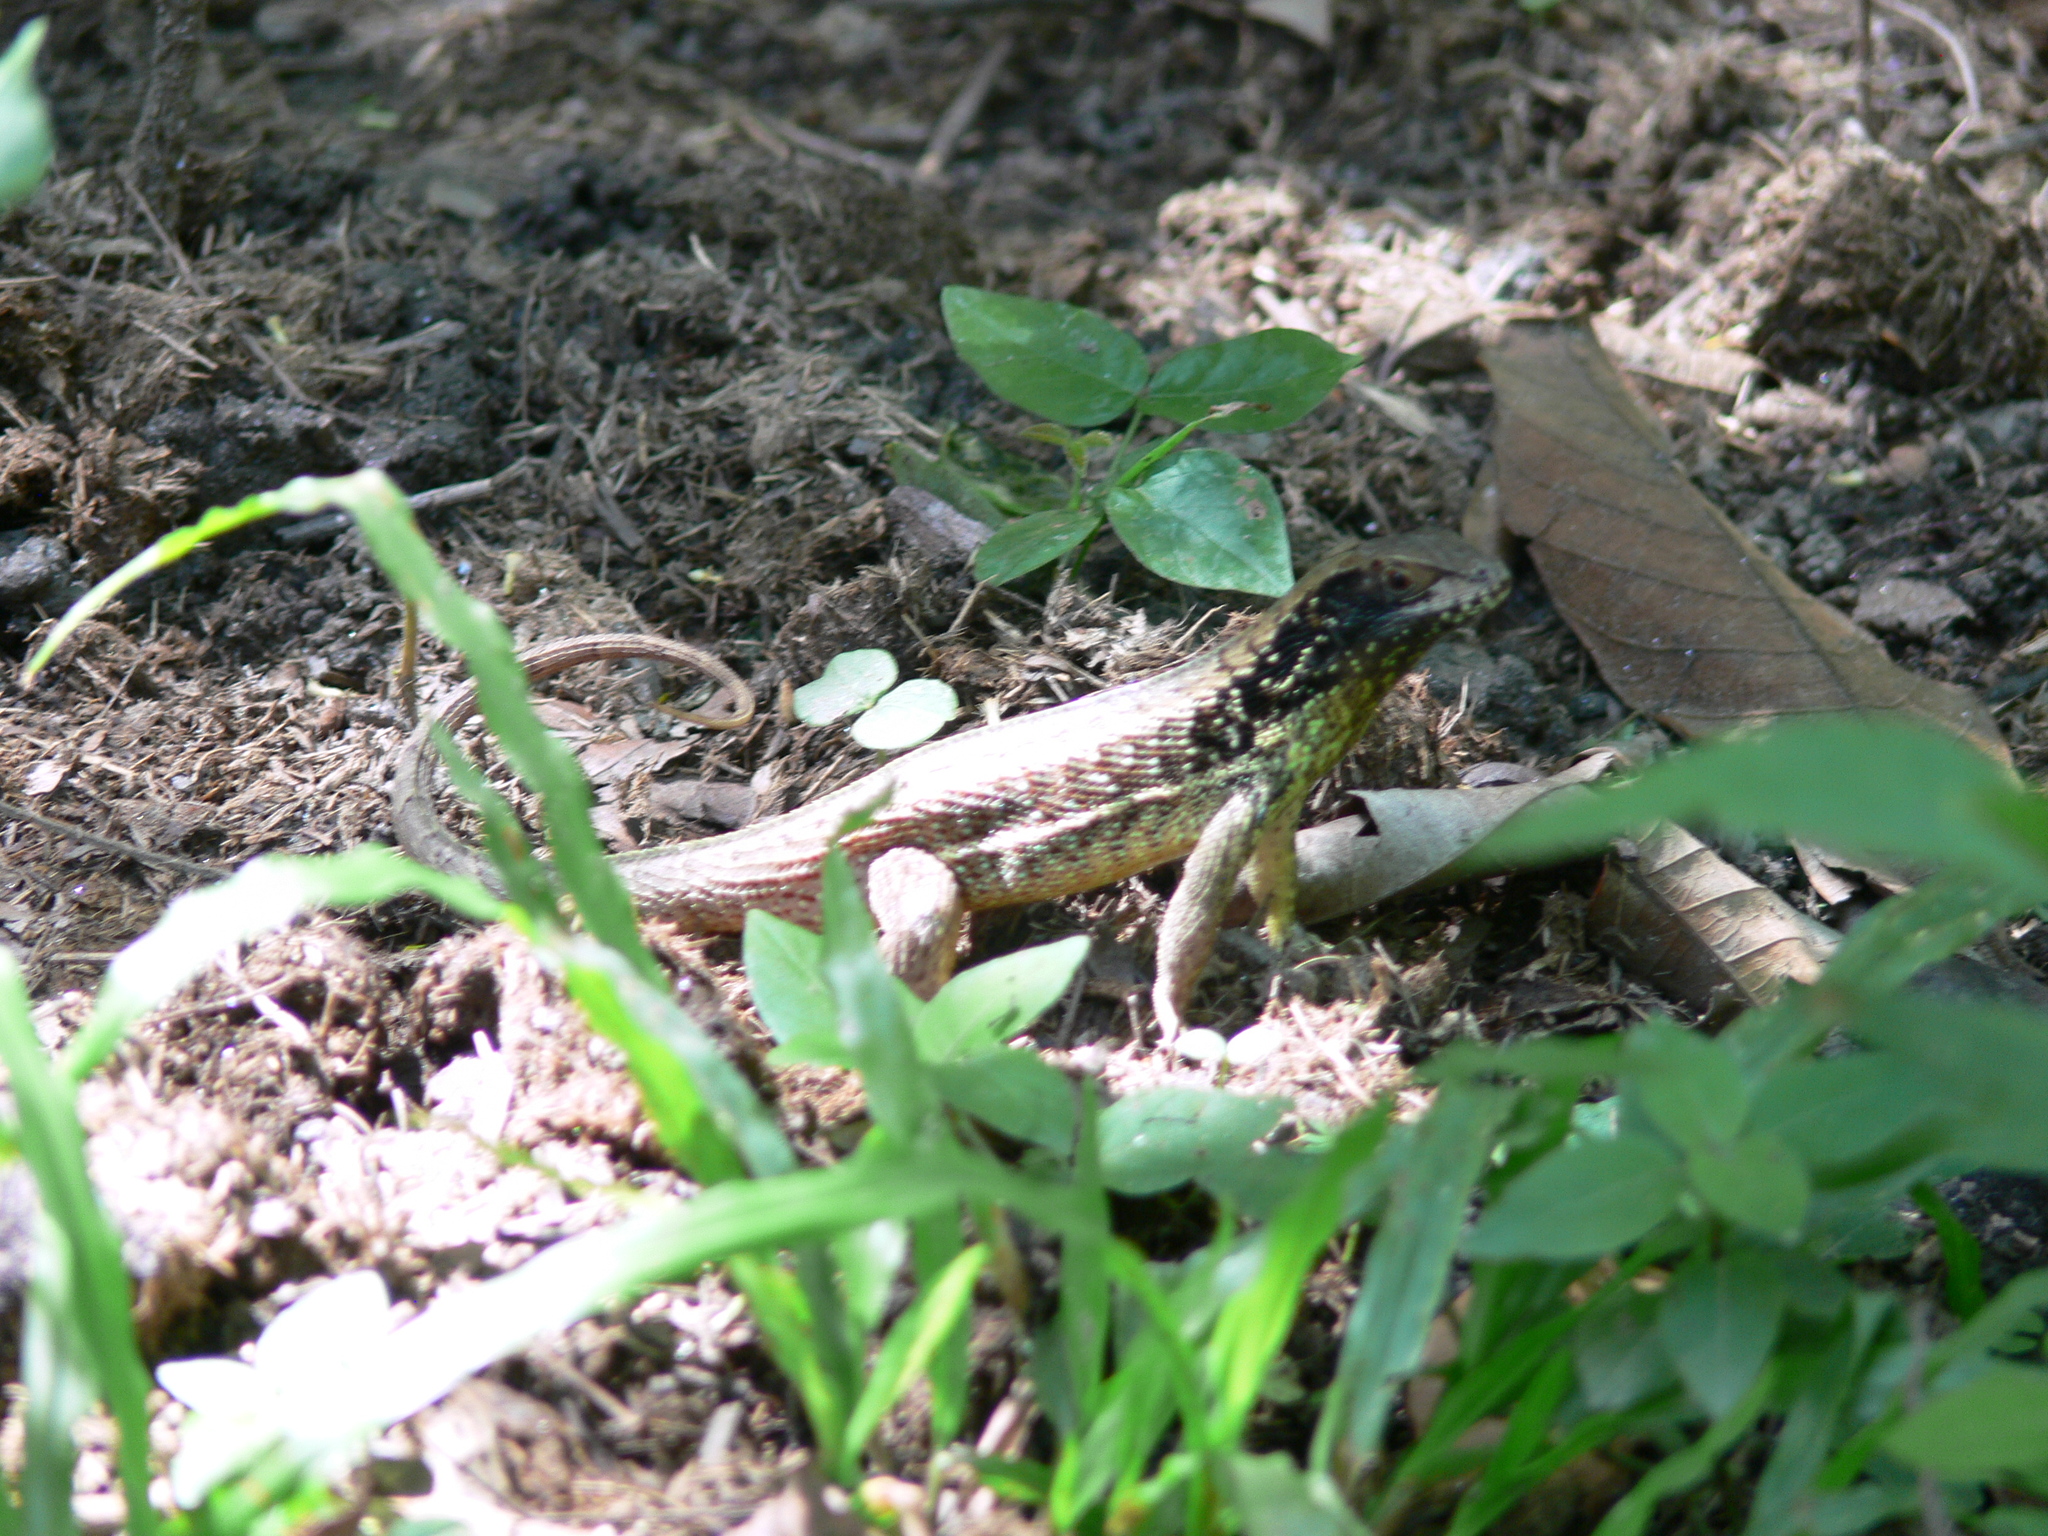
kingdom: Animalia
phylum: Chordata
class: Squamata
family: Leiocephalidae
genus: Leiocephalus
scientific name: Leiocephalus cubensis
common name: Cuban curlytail lizard
